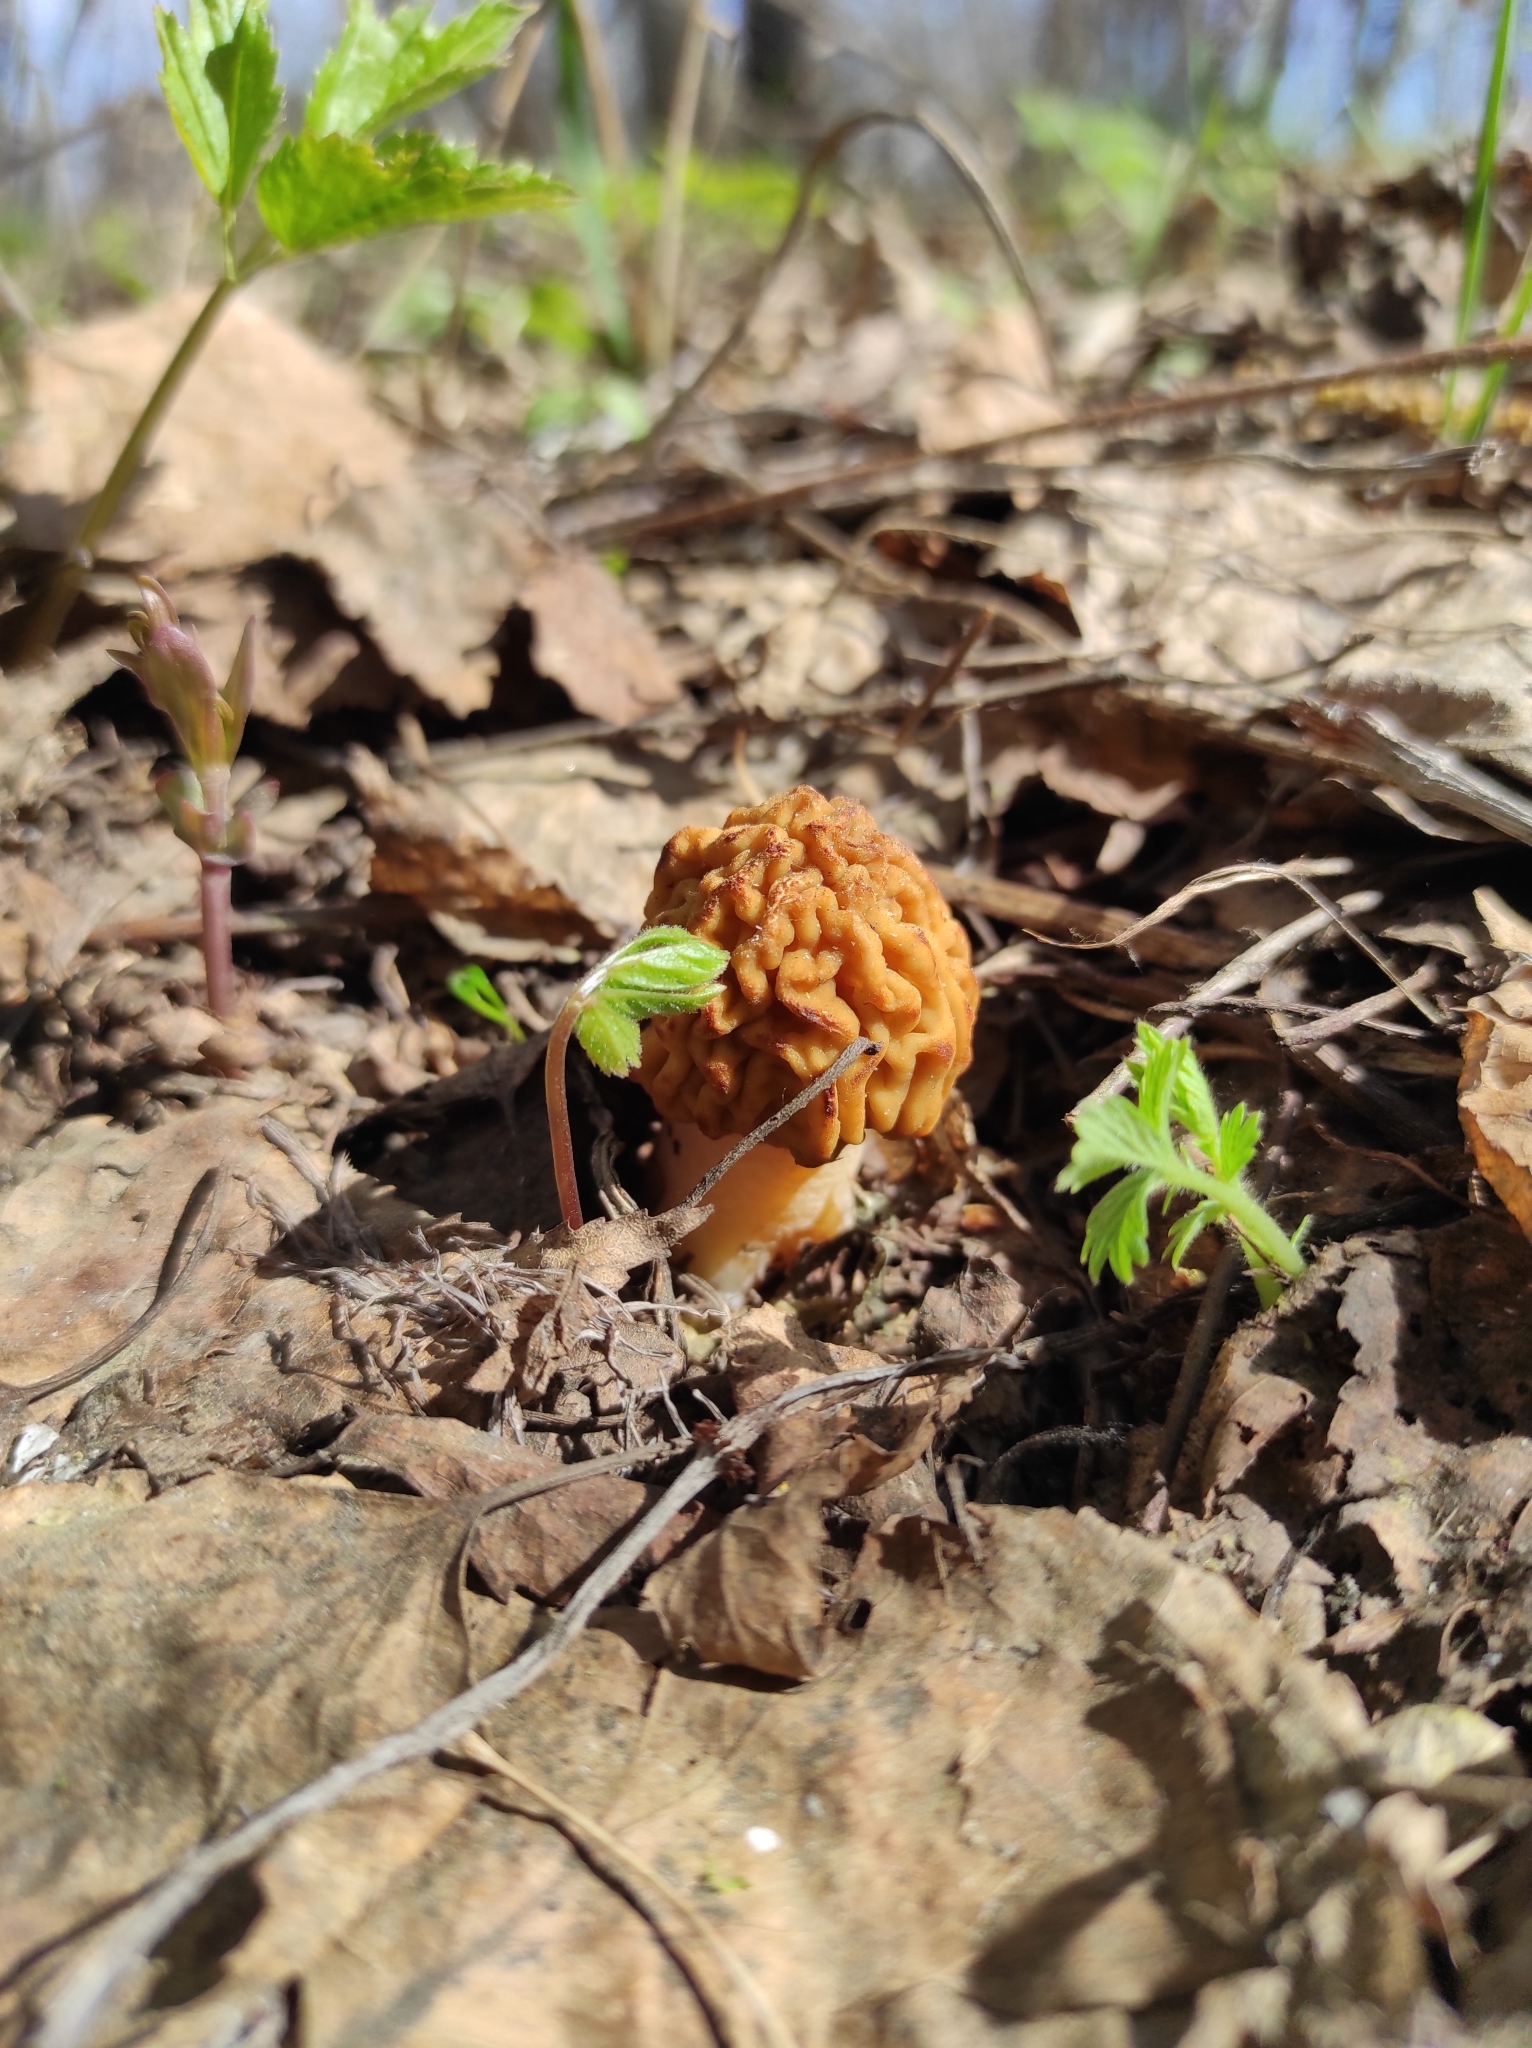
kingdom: Fungi
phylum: Ascomycota
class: Pezizomycetes
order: Pezizales
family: Morchellaceae
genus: Verpa
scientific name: Verpa bohemica
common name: Wrinkled thimble morel
